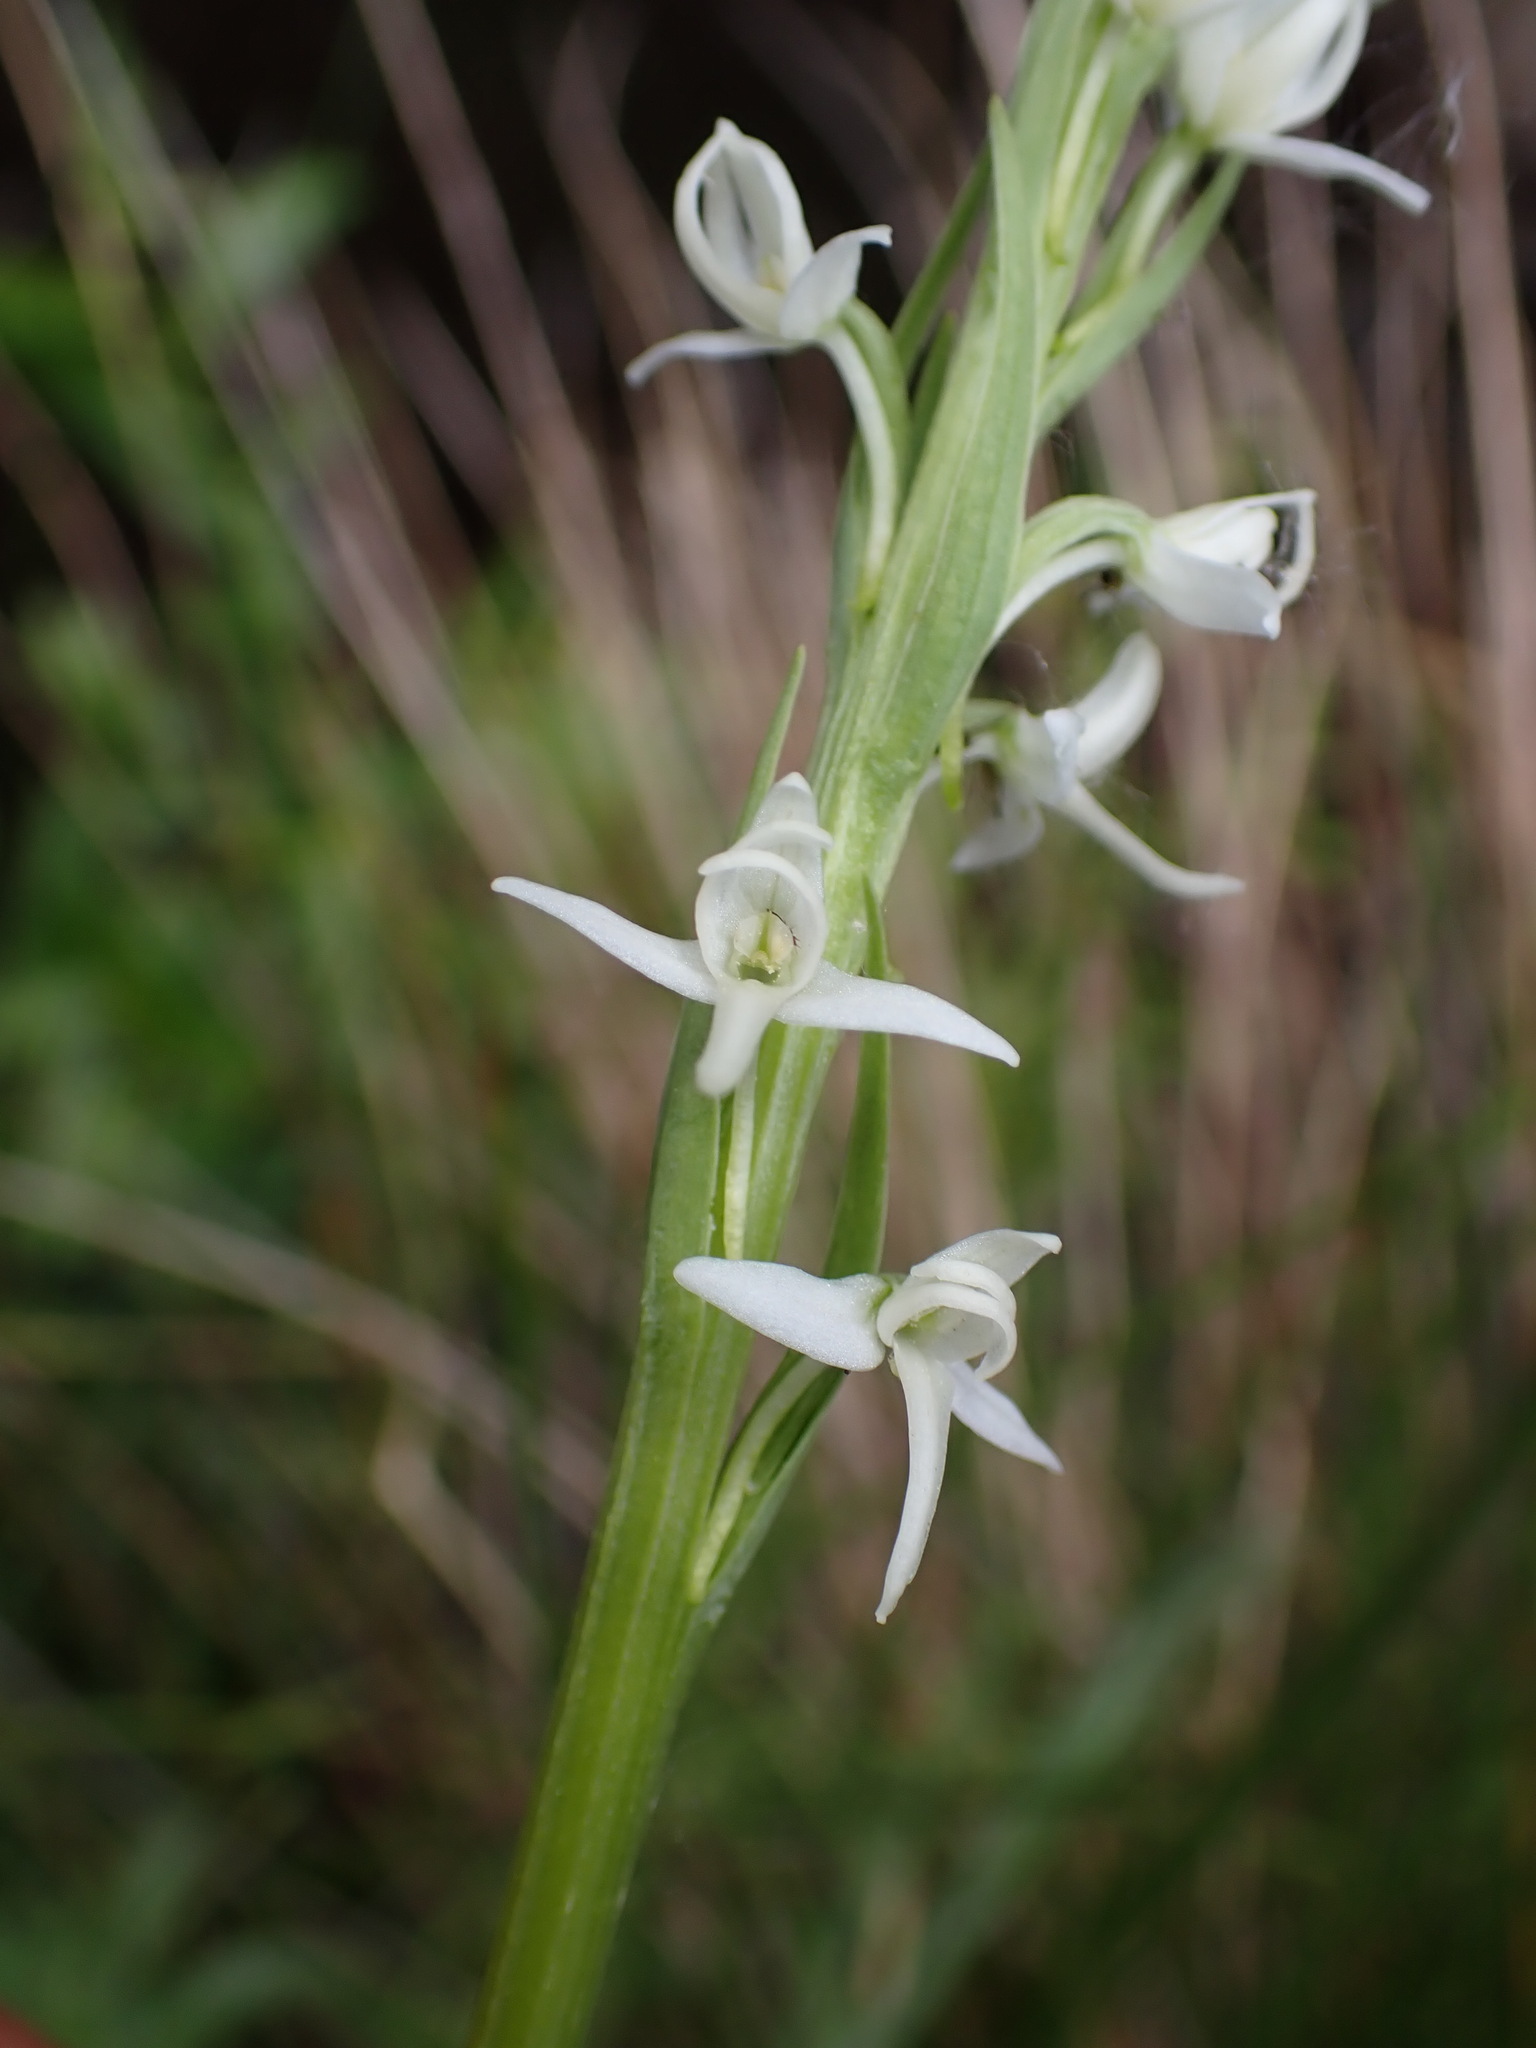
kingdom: Plantae
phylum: Tracheophyta
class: Liliopsida
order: Asparagales
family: Orchidaceae
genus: Platanthera
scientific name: Platanthera dilatata
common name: Bog candles
